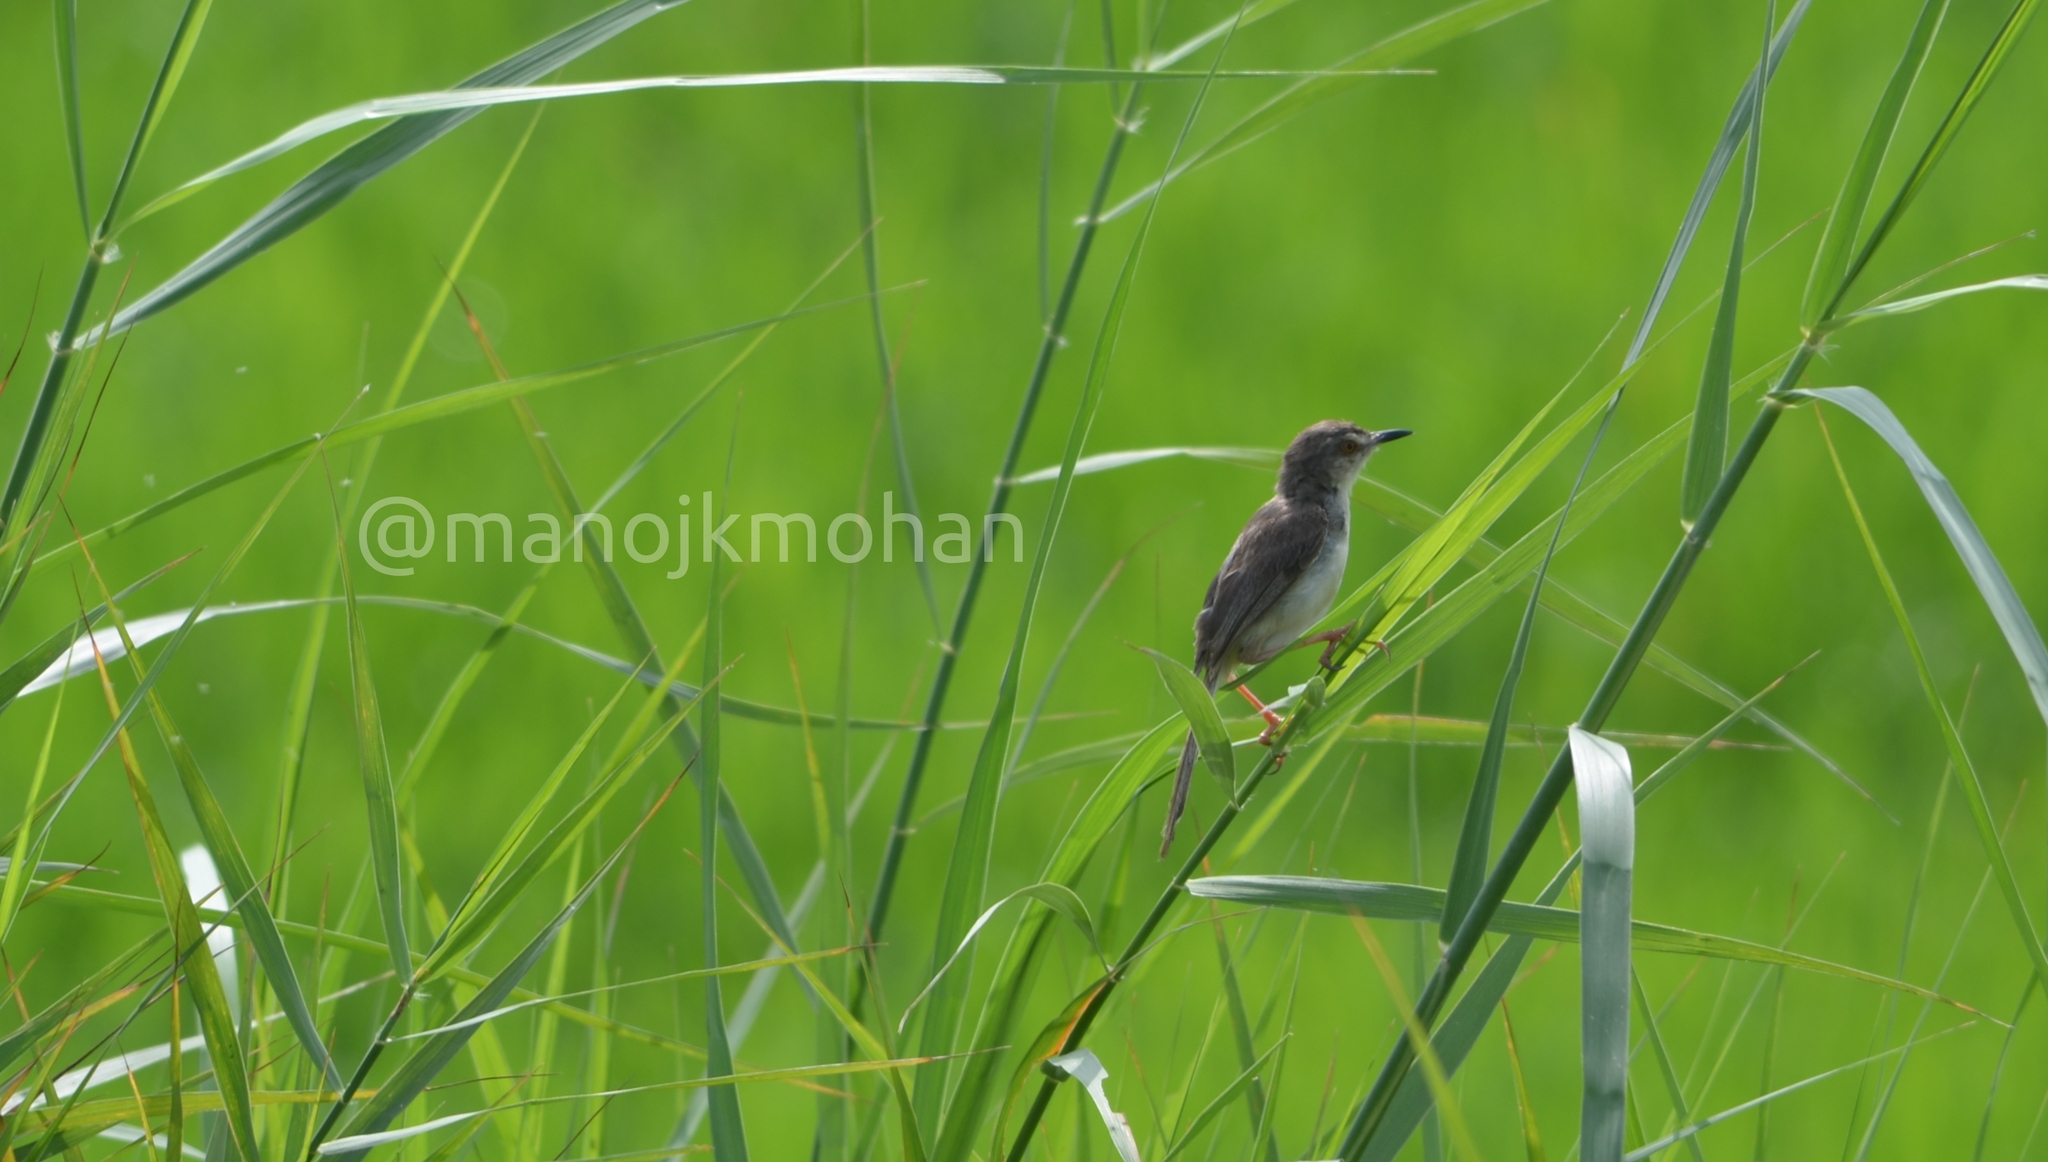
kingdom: Animalia
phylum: Chordata
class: Aves
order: Passeriformes
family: Cisticolidae
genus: Prinia
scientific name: Prinia inornata
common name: Plain prinia
